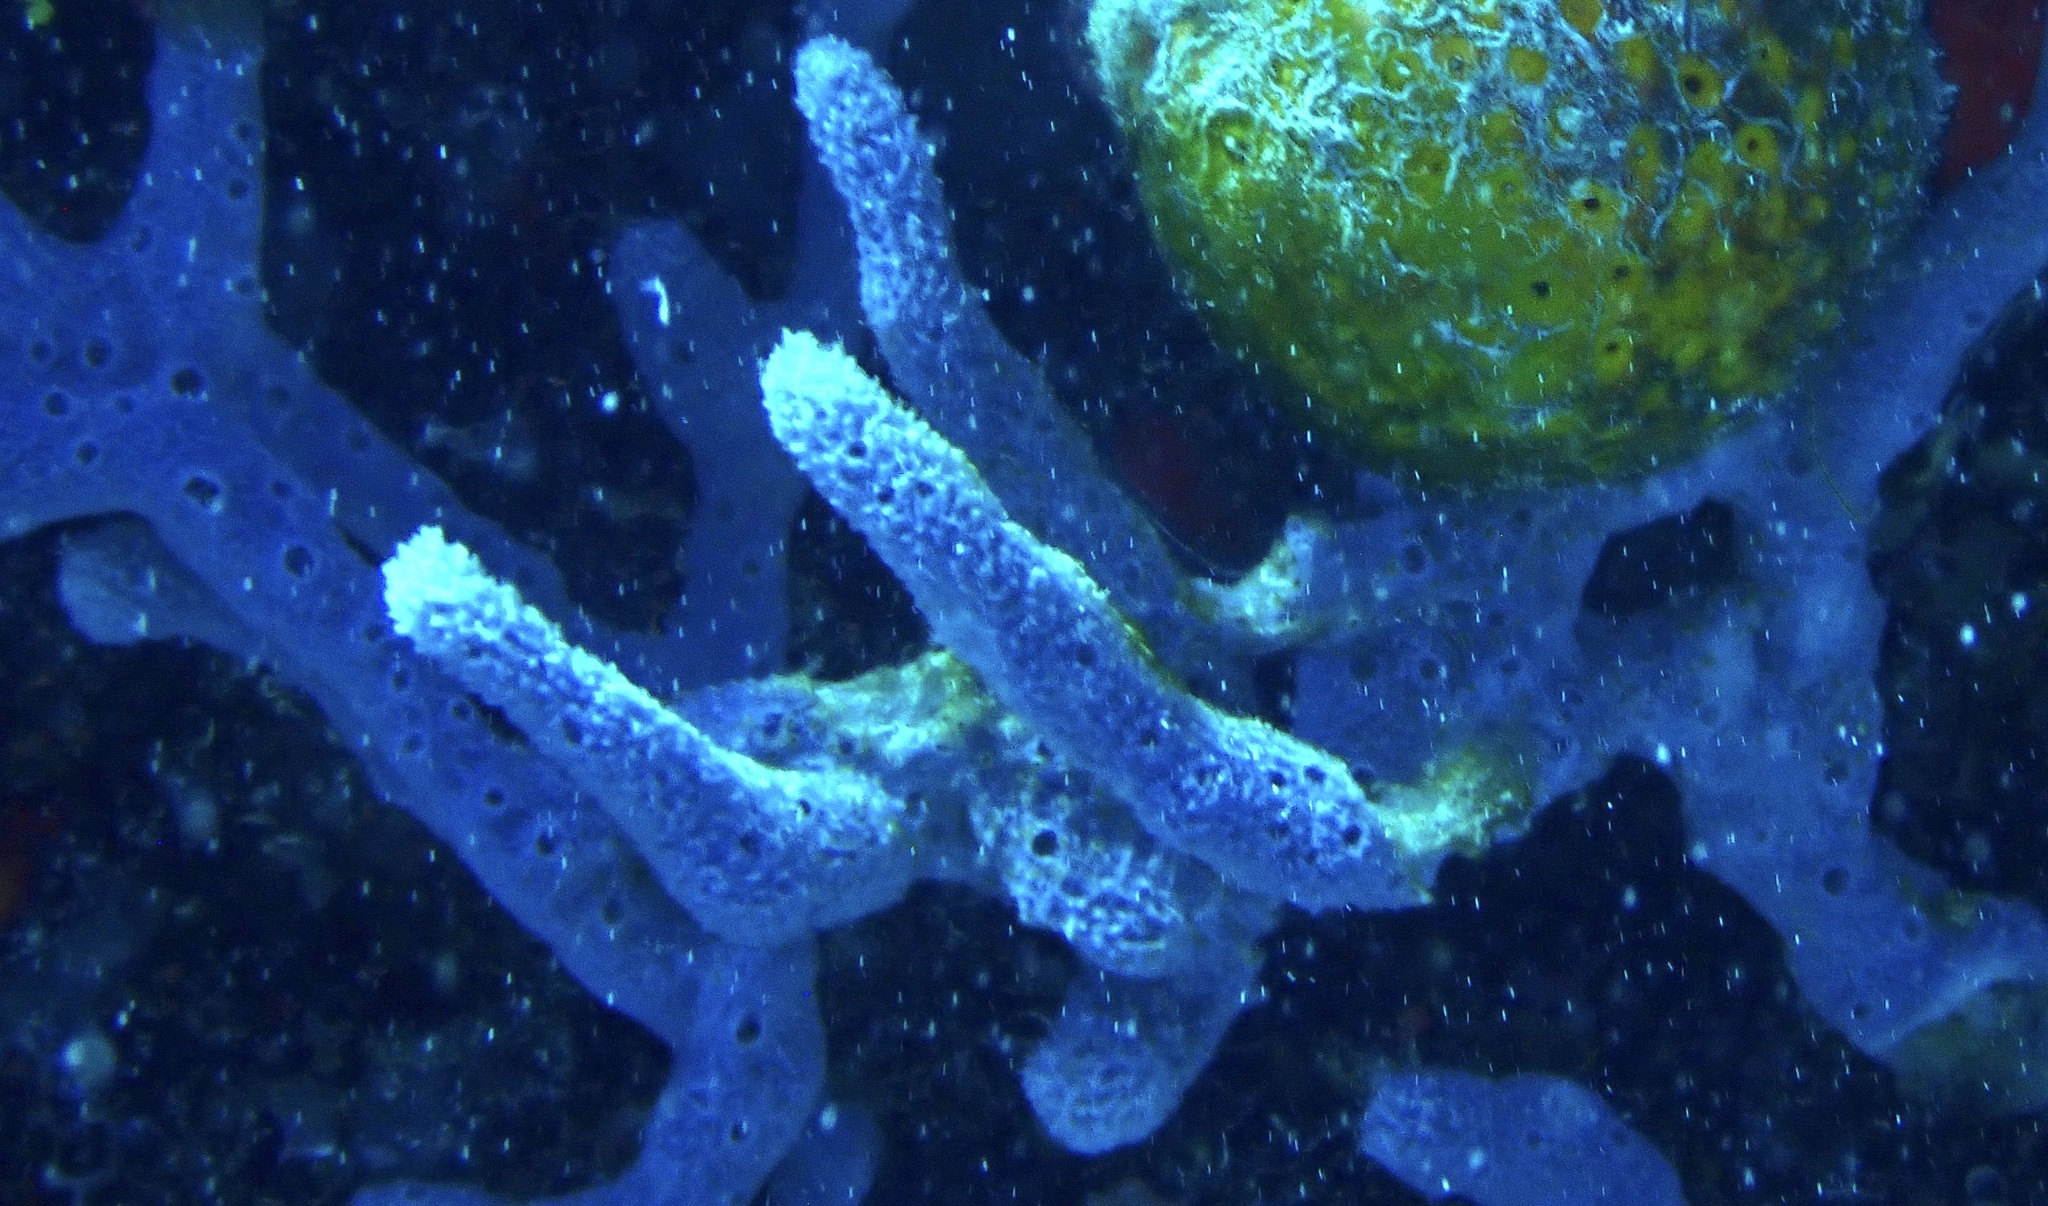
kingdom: Animalia
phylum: Porifera
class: Demospongiae
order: Haplosclerida
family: Niphatidae
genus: Niphates
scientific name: Niphates erecta
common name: Lavender rope sponge
